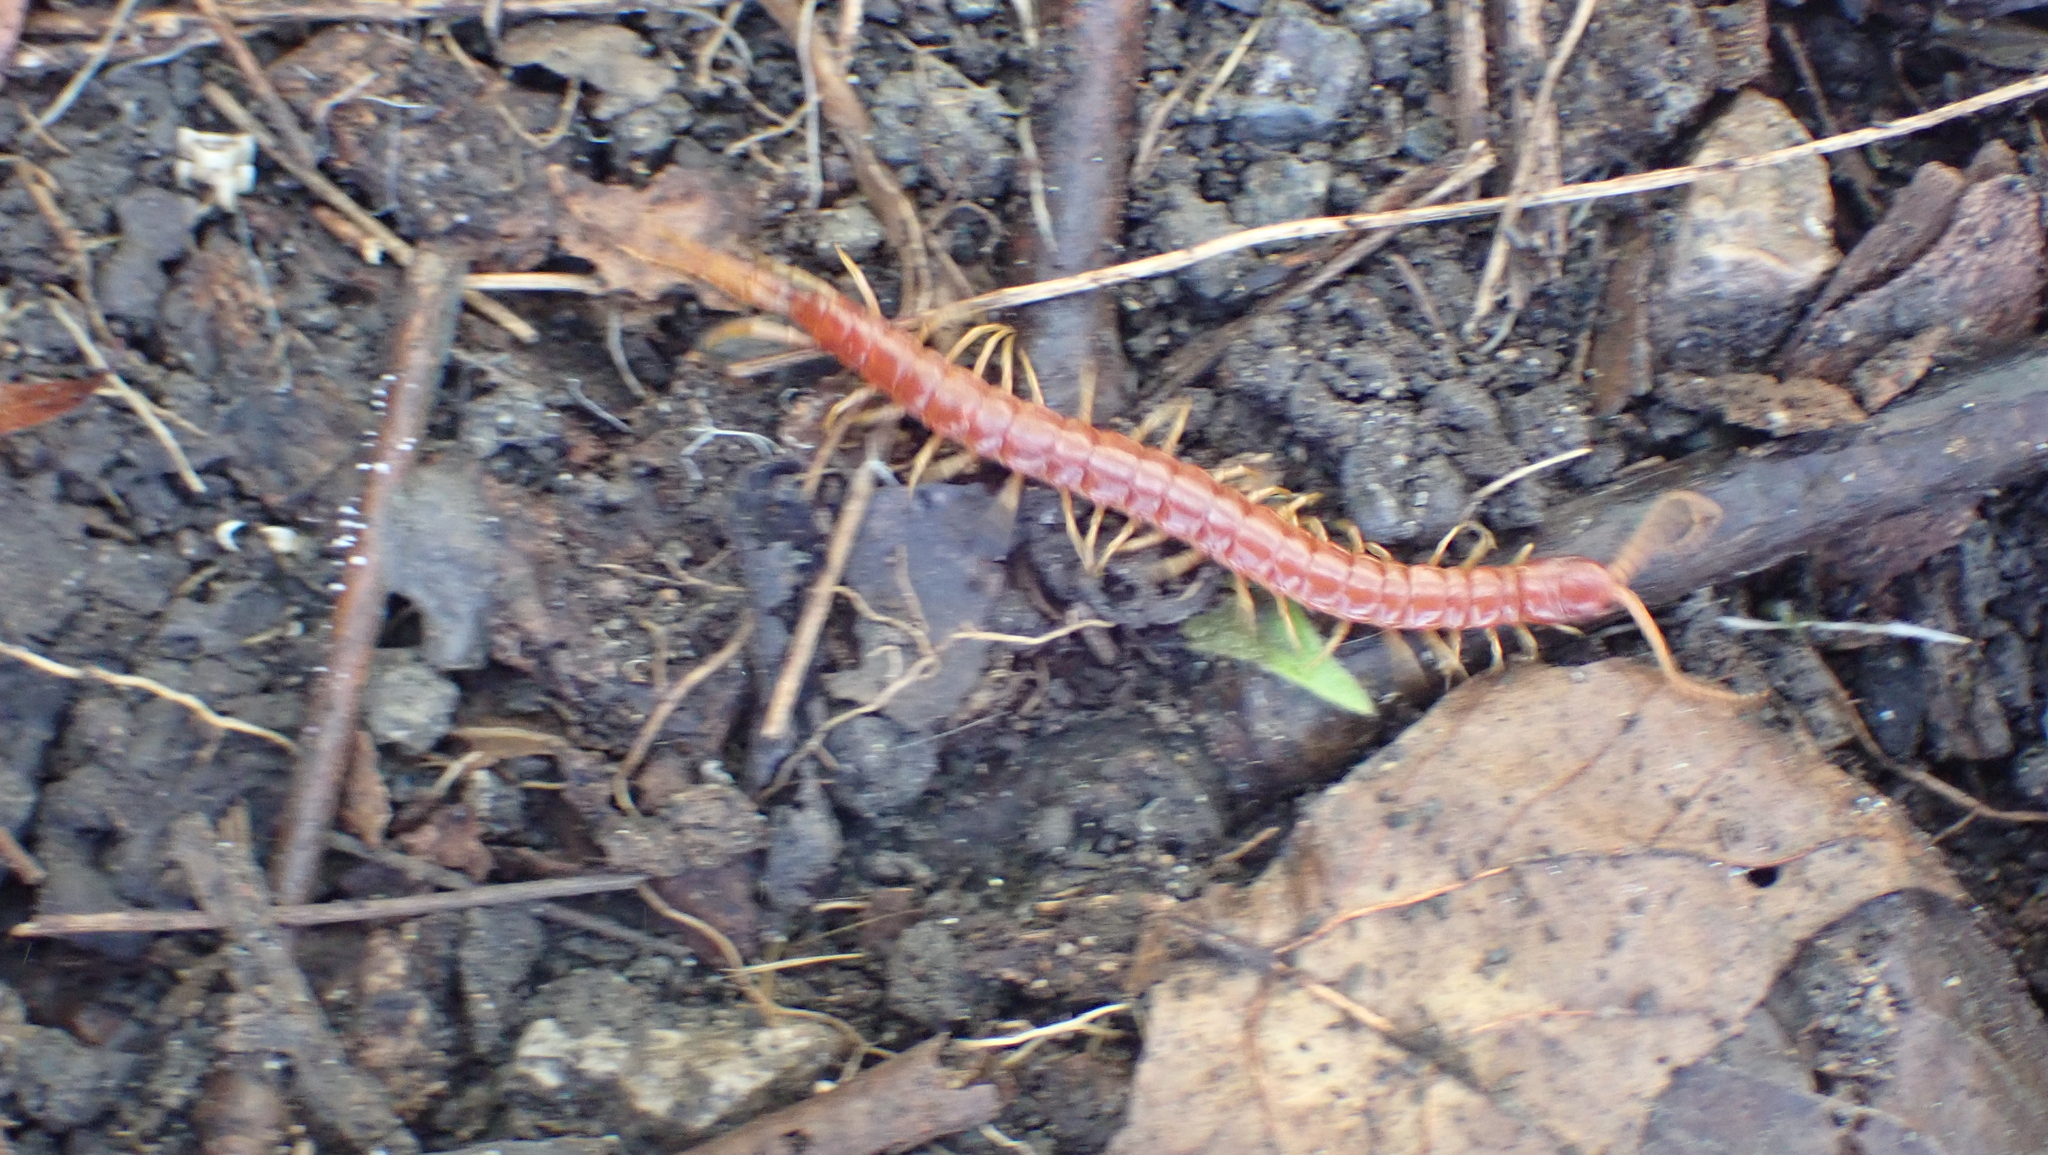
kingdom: Animalia
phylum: Arthropoda
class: Chilopoda
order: Scolopendromorpha
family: Scolopocryptopidae
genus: Scolopocryptops
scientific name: Scolopocryptops sexspinosus
